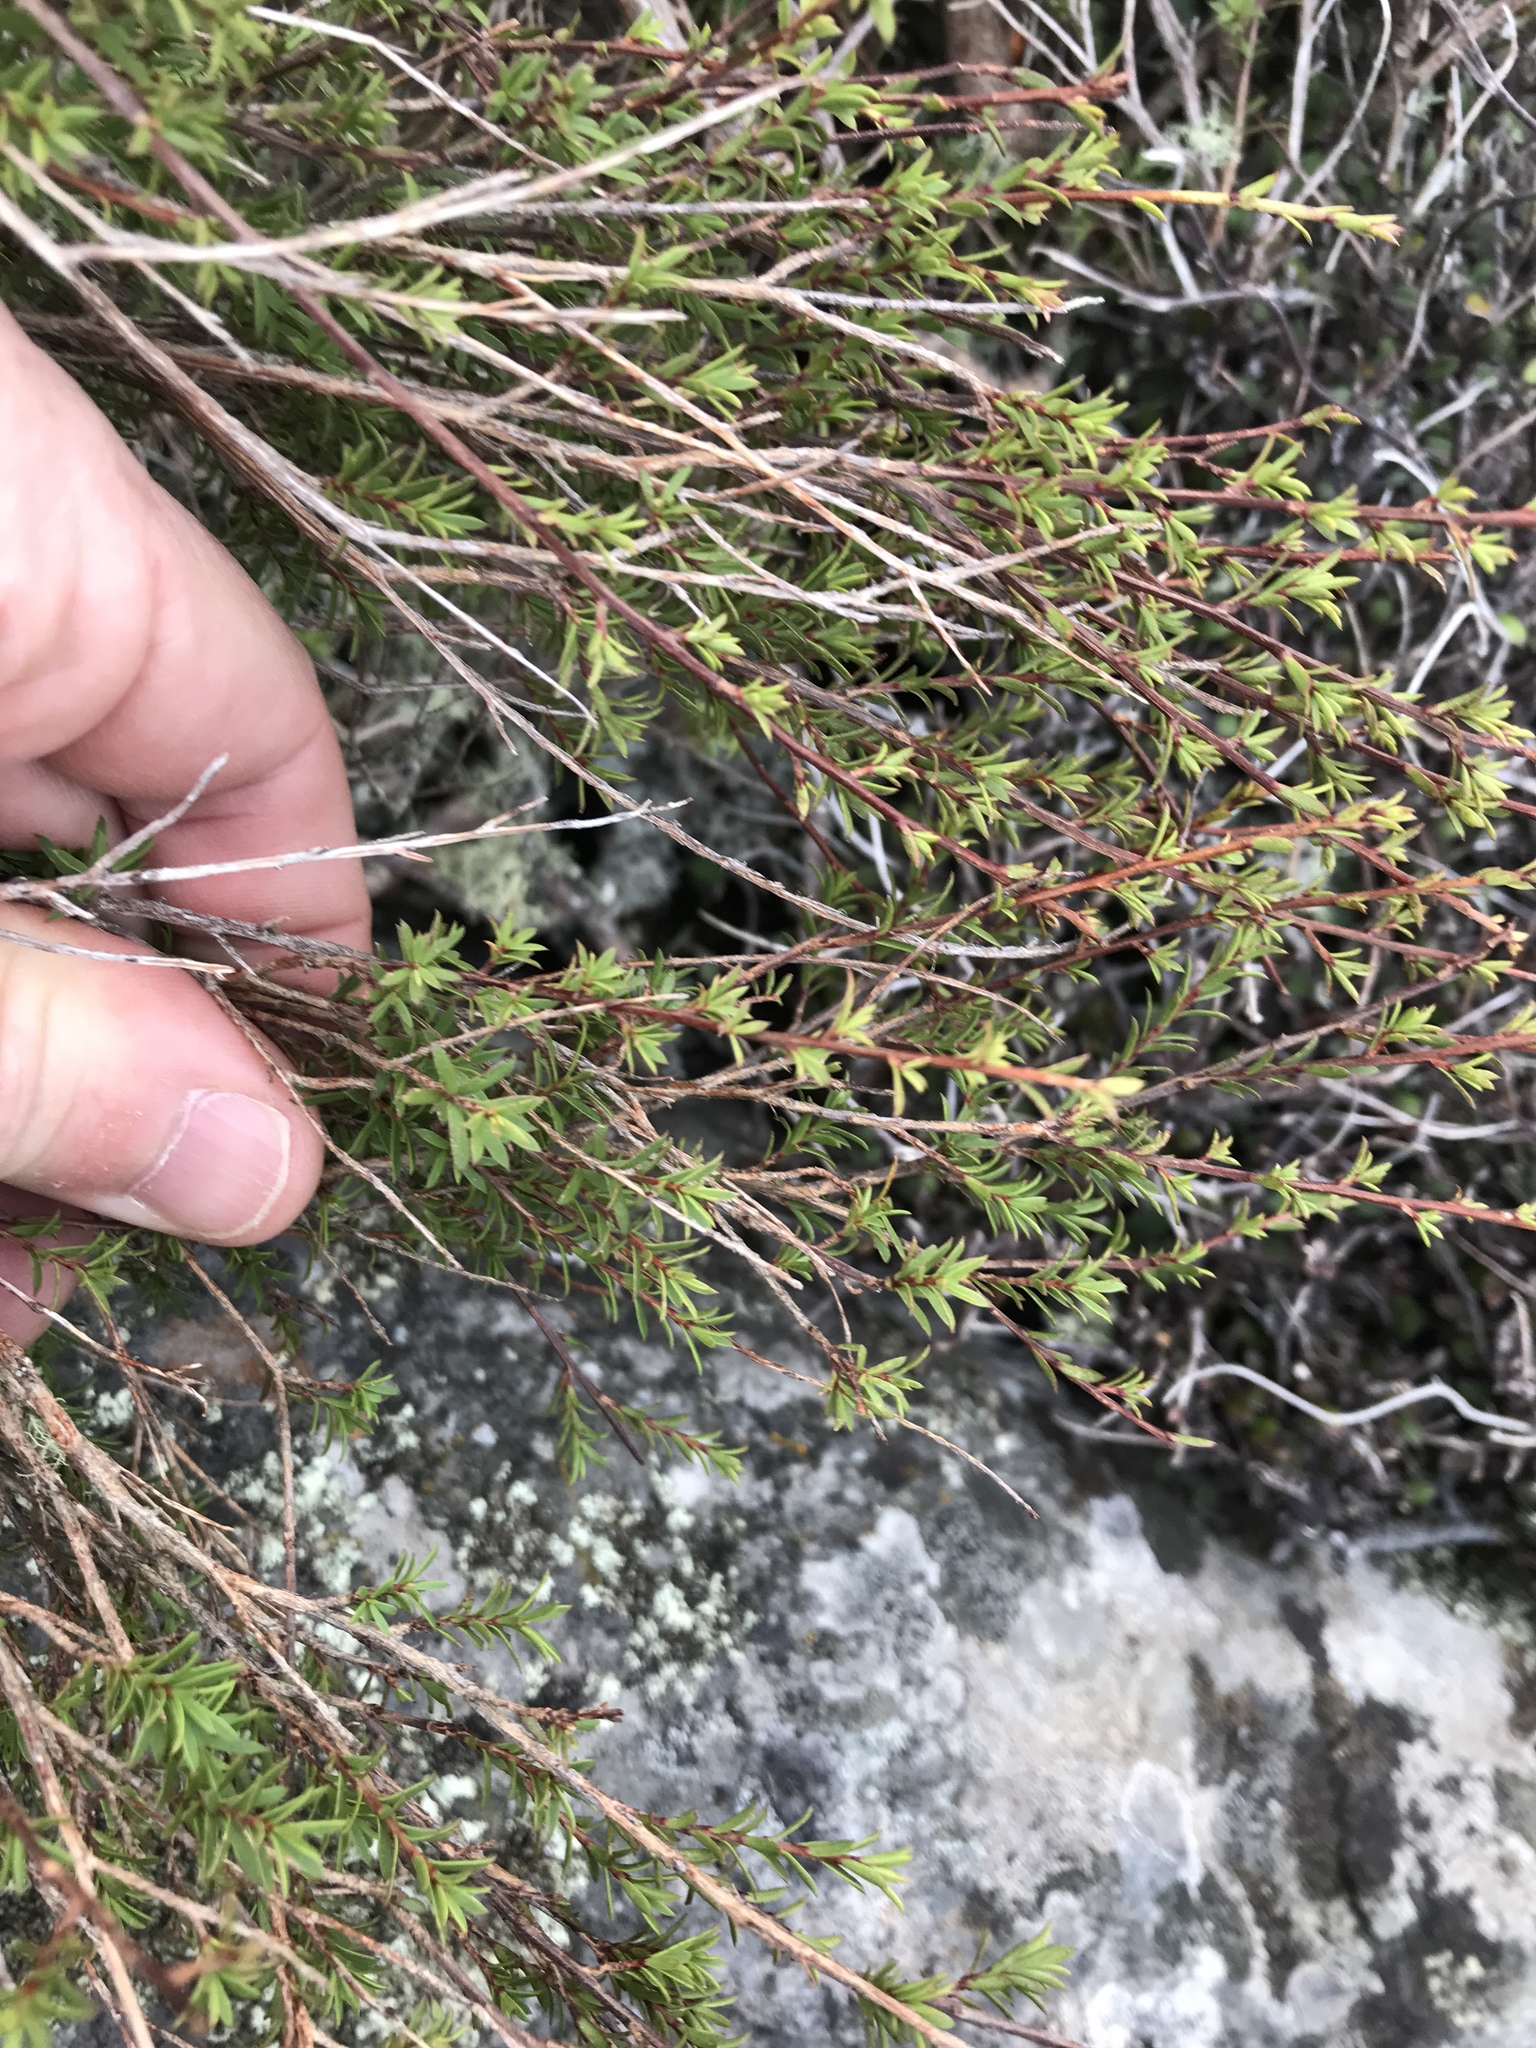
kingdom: Plantae
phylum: Tracheophyta
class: Magnoliopsida
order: Myrtales
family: Myrtaceae
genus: Kunzea
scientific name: Kunzea robusta
